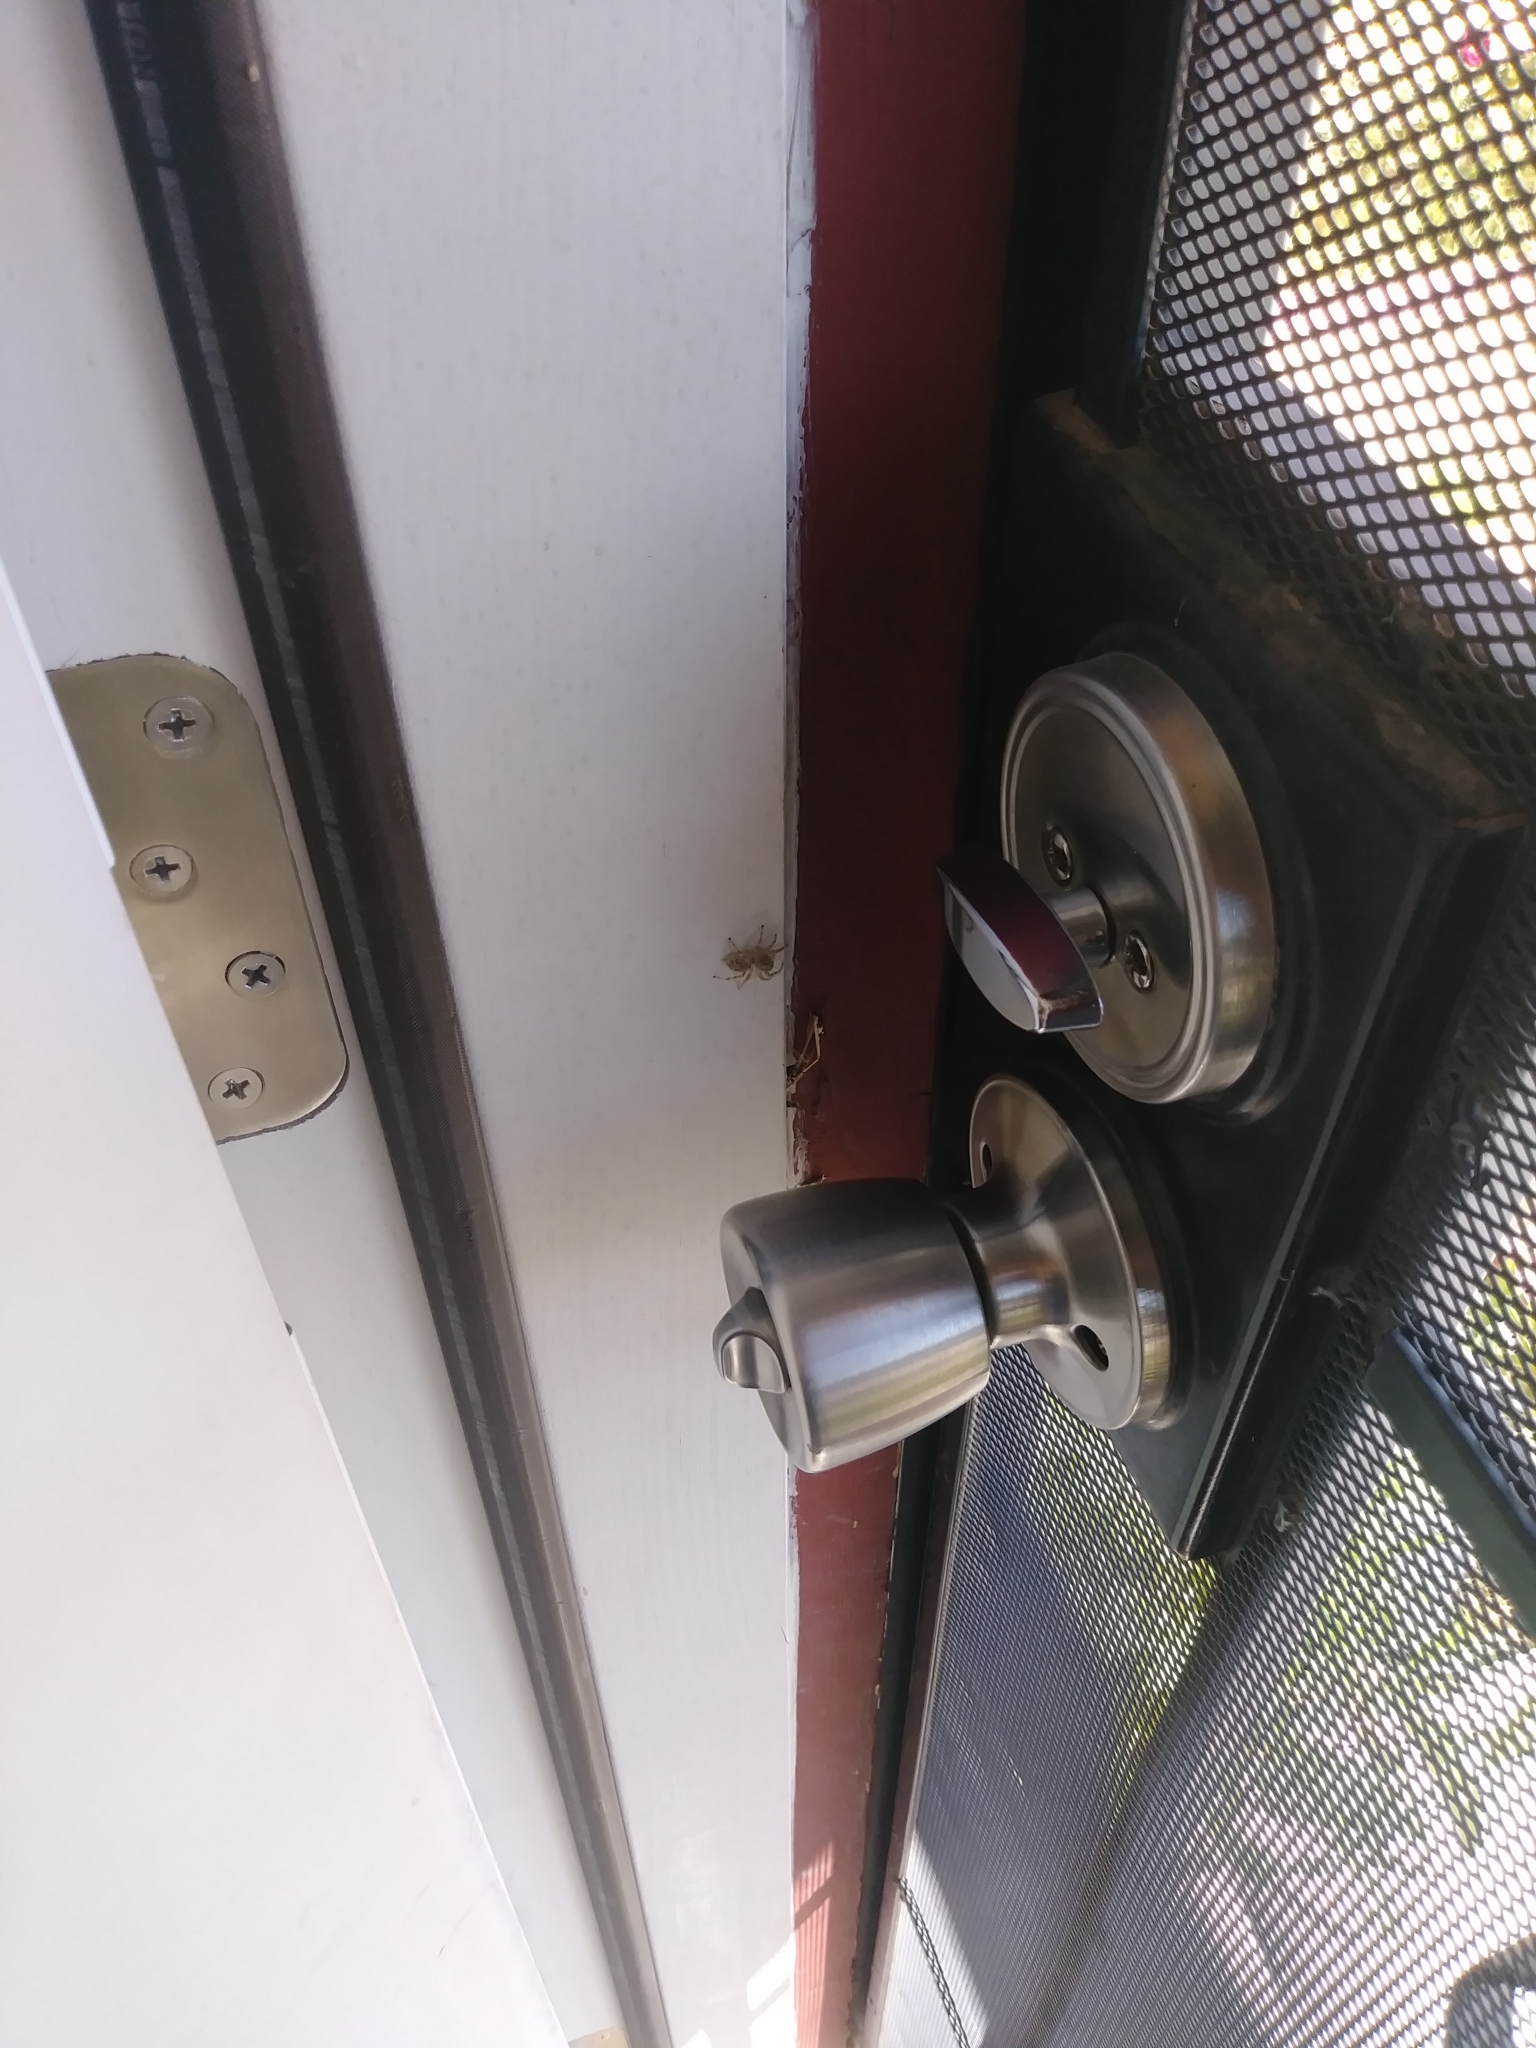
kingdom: Animalia
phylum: Arthropoda
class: Arachnida
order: Araneae
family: Salticidae
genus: Plexippoides
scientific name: Plexippoides flavescens
